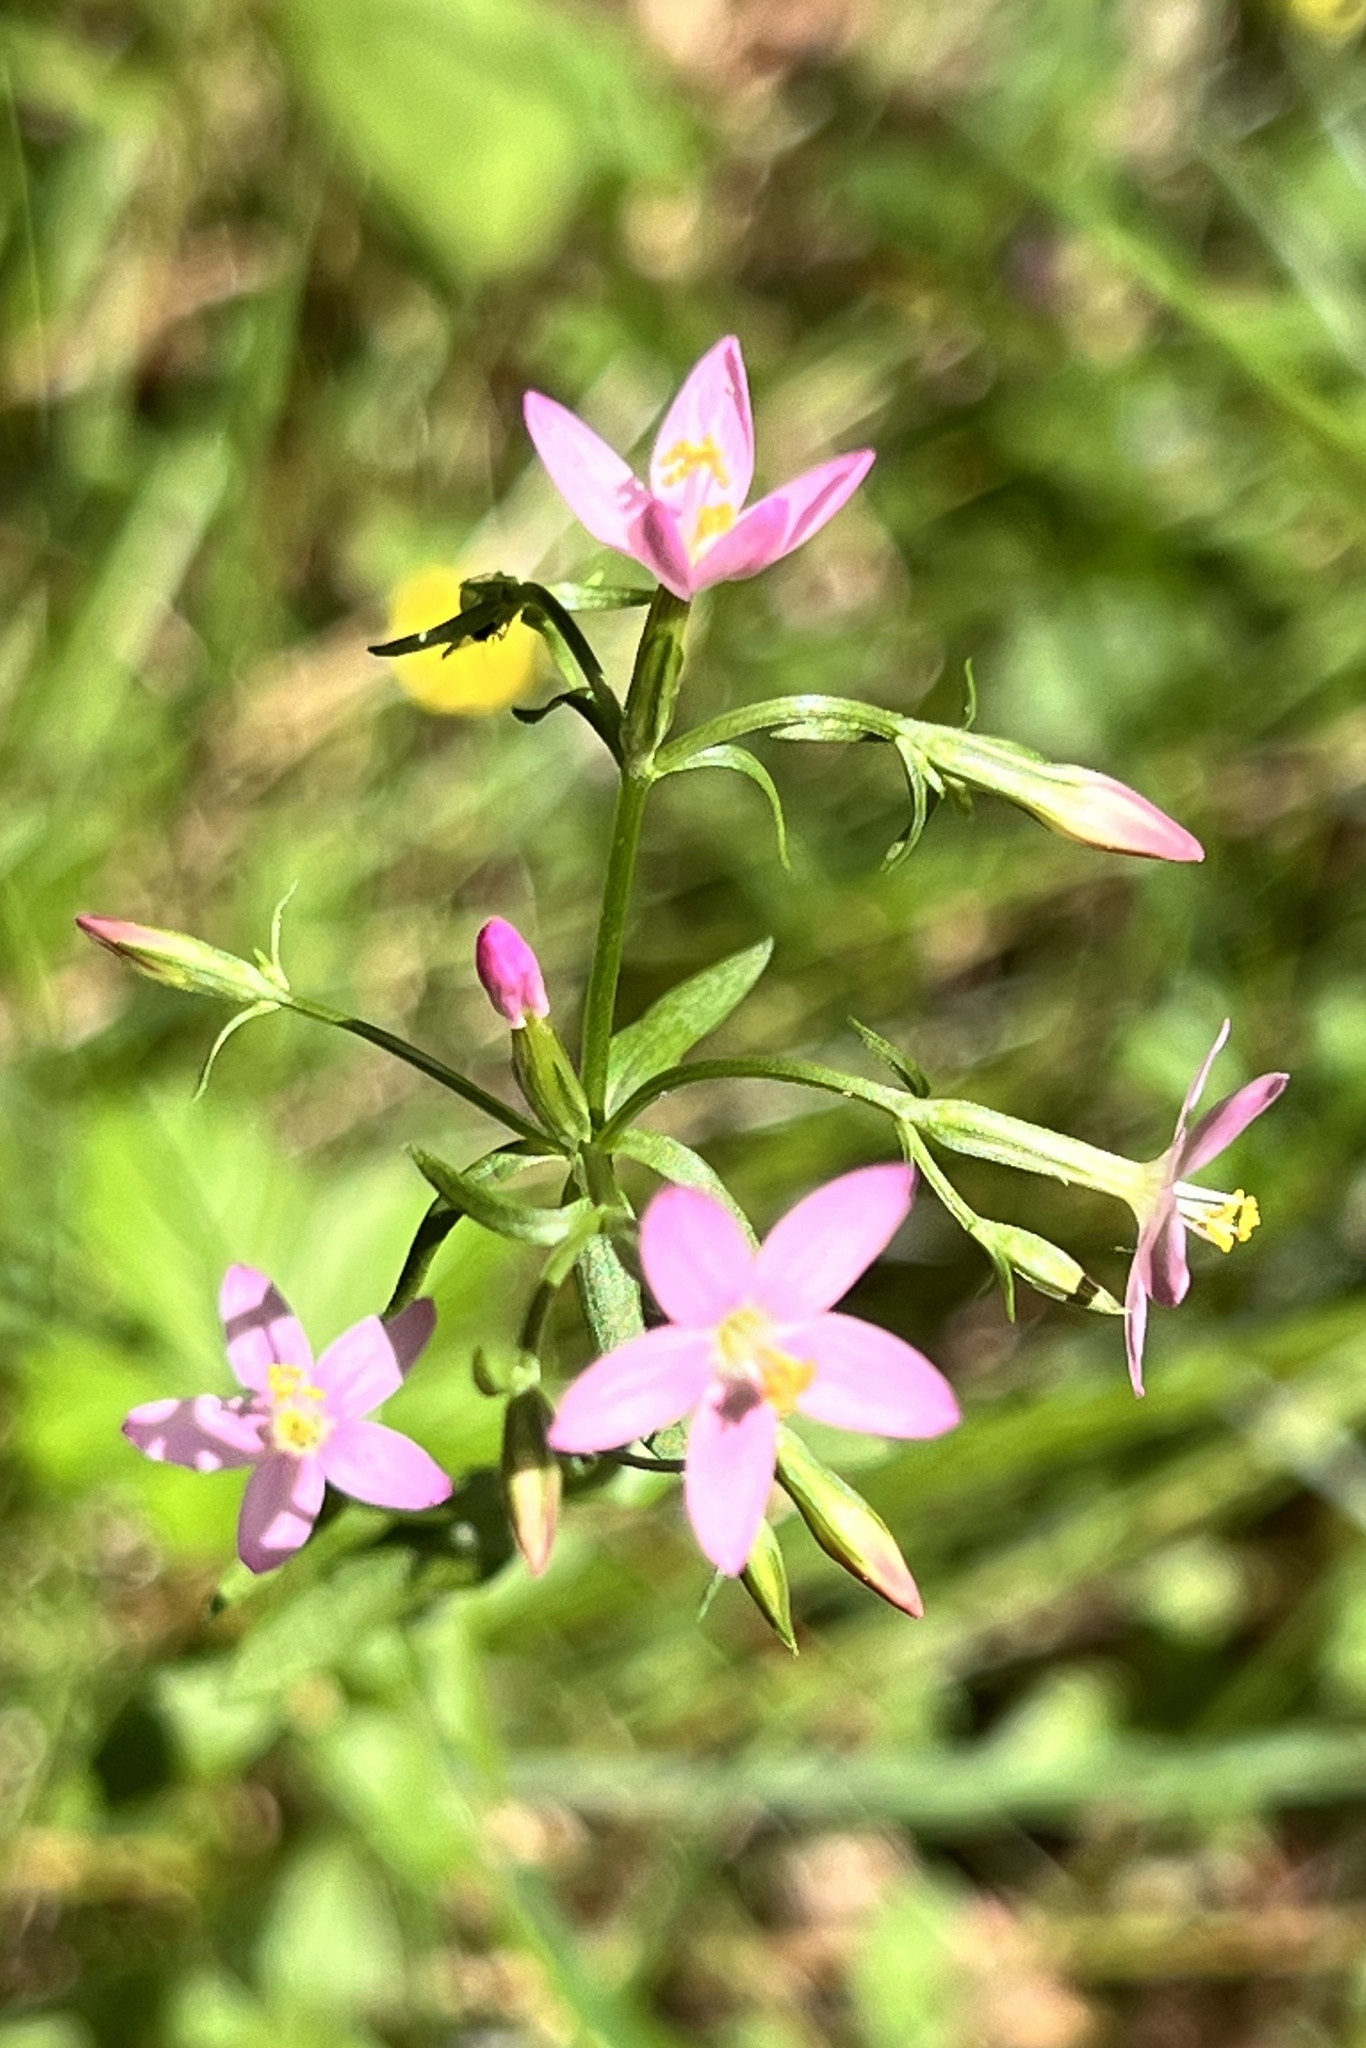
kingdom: Plantae
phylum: Tracheophyta
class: Magnoliopsida
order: Gentianales
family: Gentianaceae
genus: Centaurium
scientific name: Centaurium erythraea
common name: Common centaury
